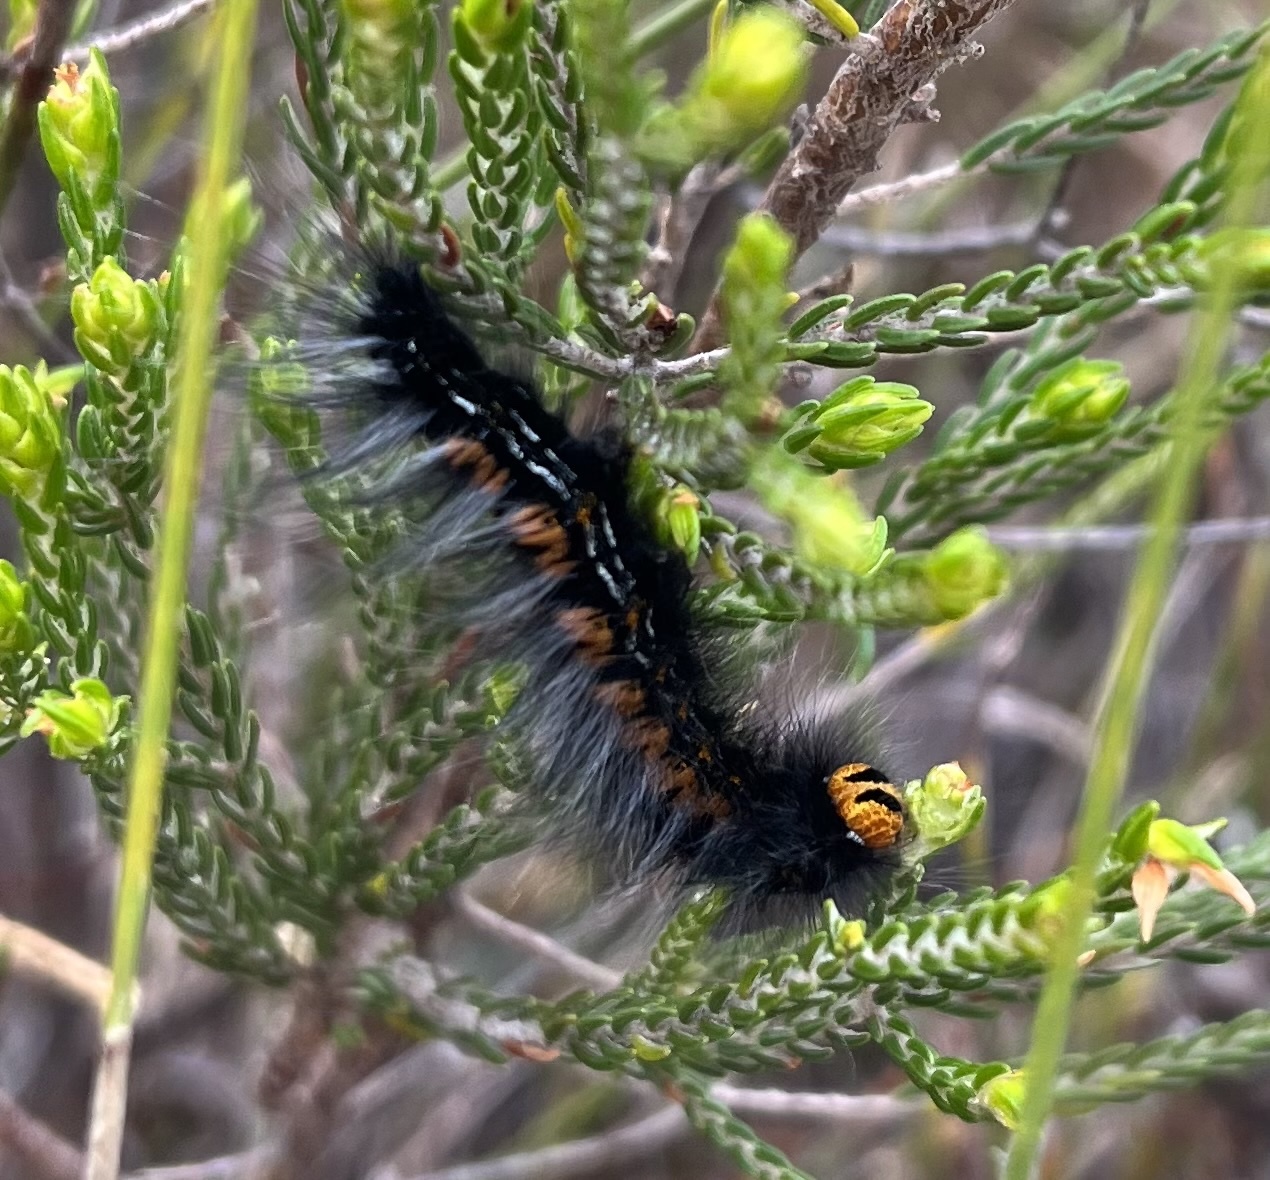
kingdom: Animalia
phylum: Arthropoda
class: Insecta
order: Lepidoptera
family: Lasiocampidae
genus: Mesocelis
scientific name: Mesocelis monticola
